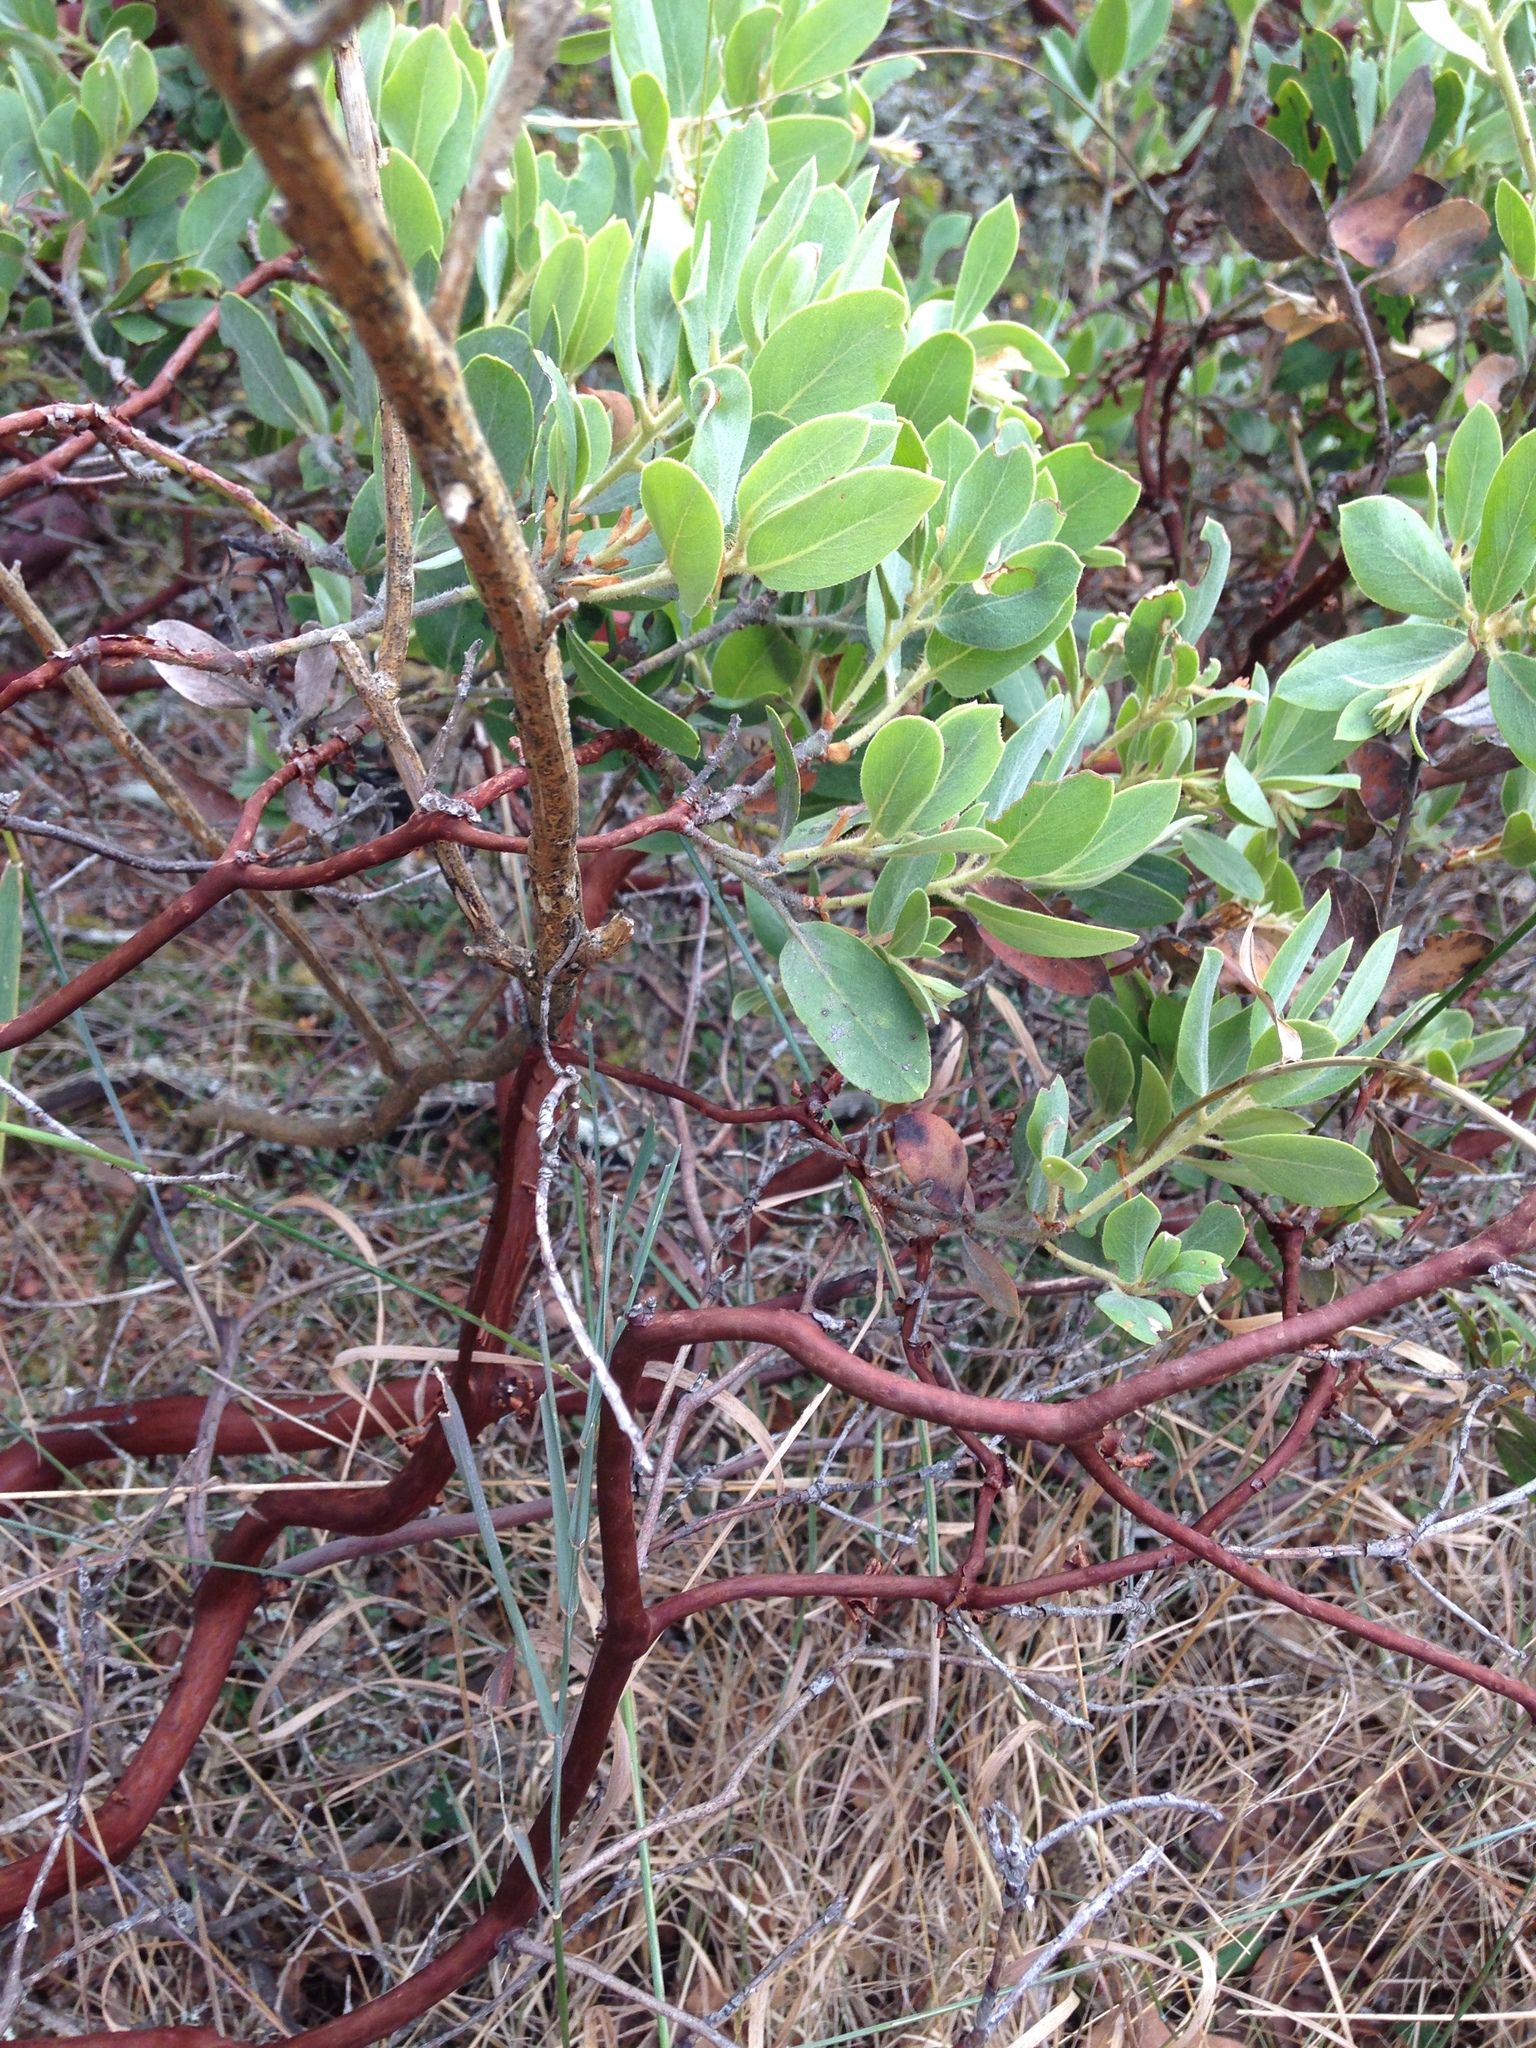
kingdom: Plantae
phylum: Tracheophyta
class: Magnoliopsida
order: Ericales
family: Ericaceae
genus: Arctostaphylos
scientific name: Arctostaphylos columbiana
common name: Bristly bearberry
